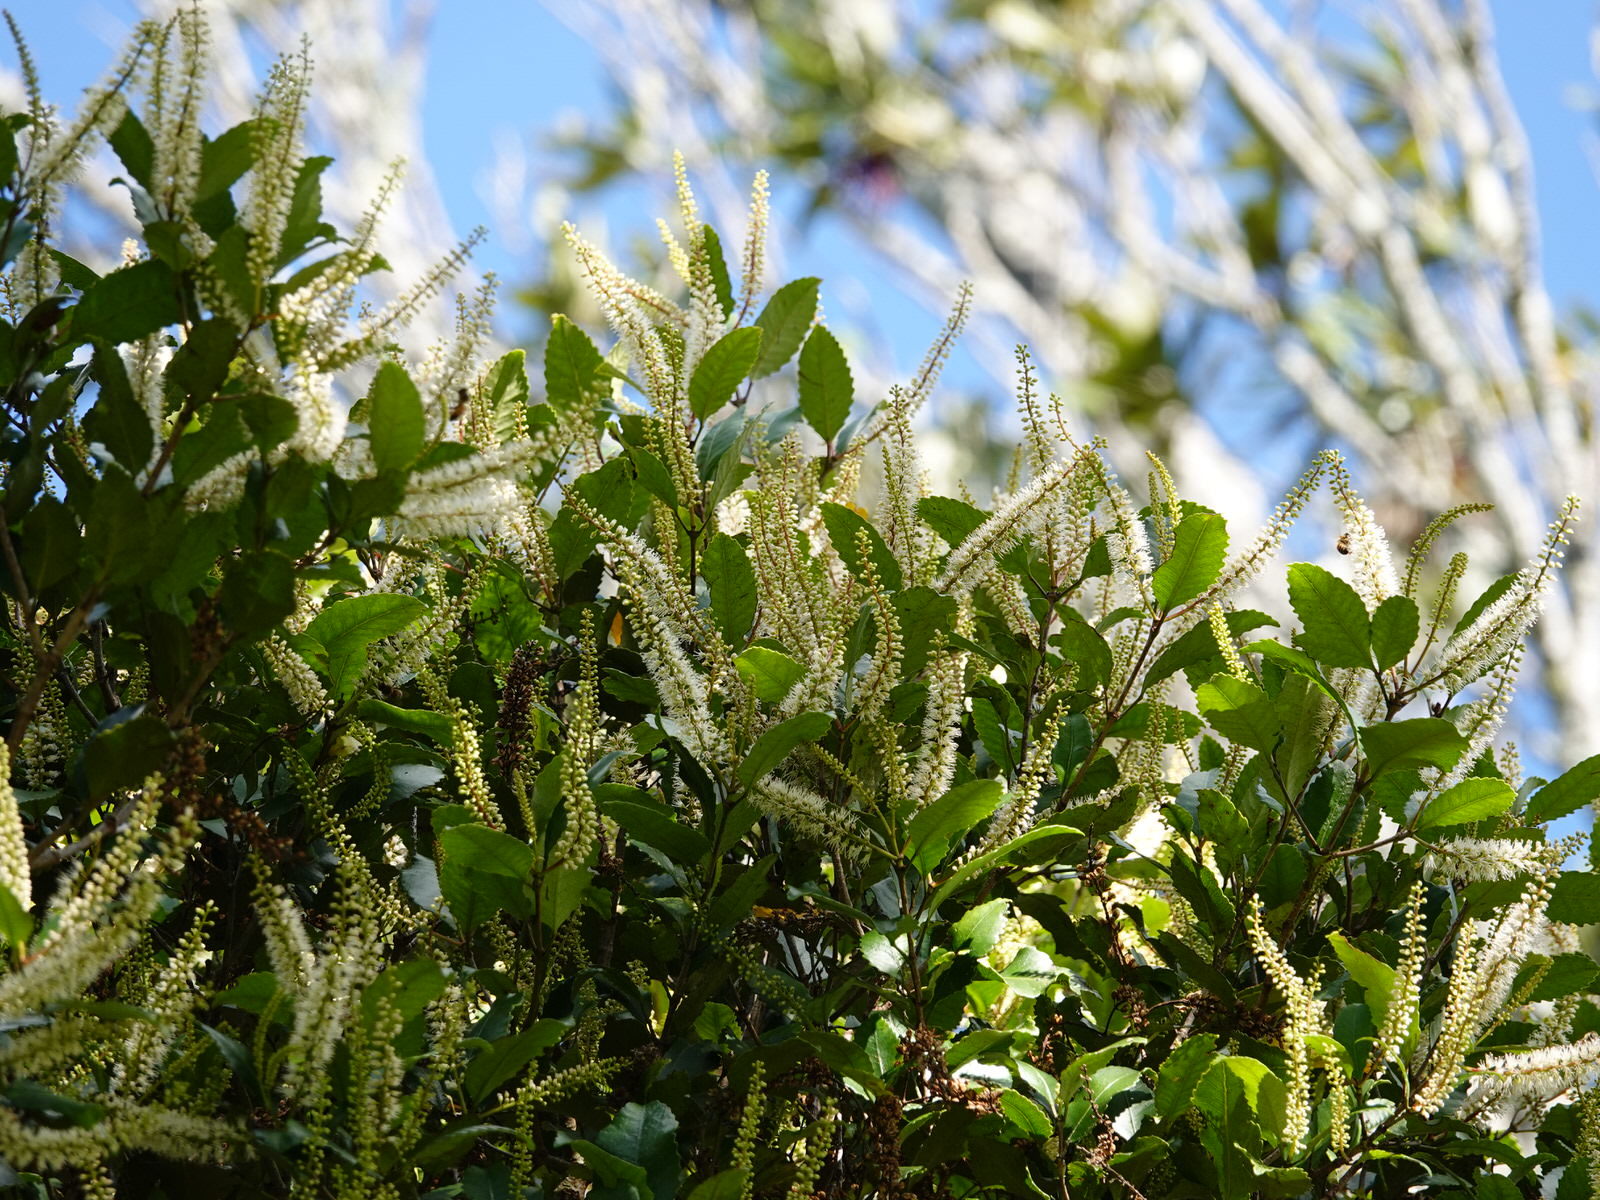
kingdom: Plantae
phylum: Tracheophyta
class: Magnoliopsida
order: Oxalidales
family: Cunoniaceae
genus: Pterophylla
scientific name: Pterophylla racemosa
